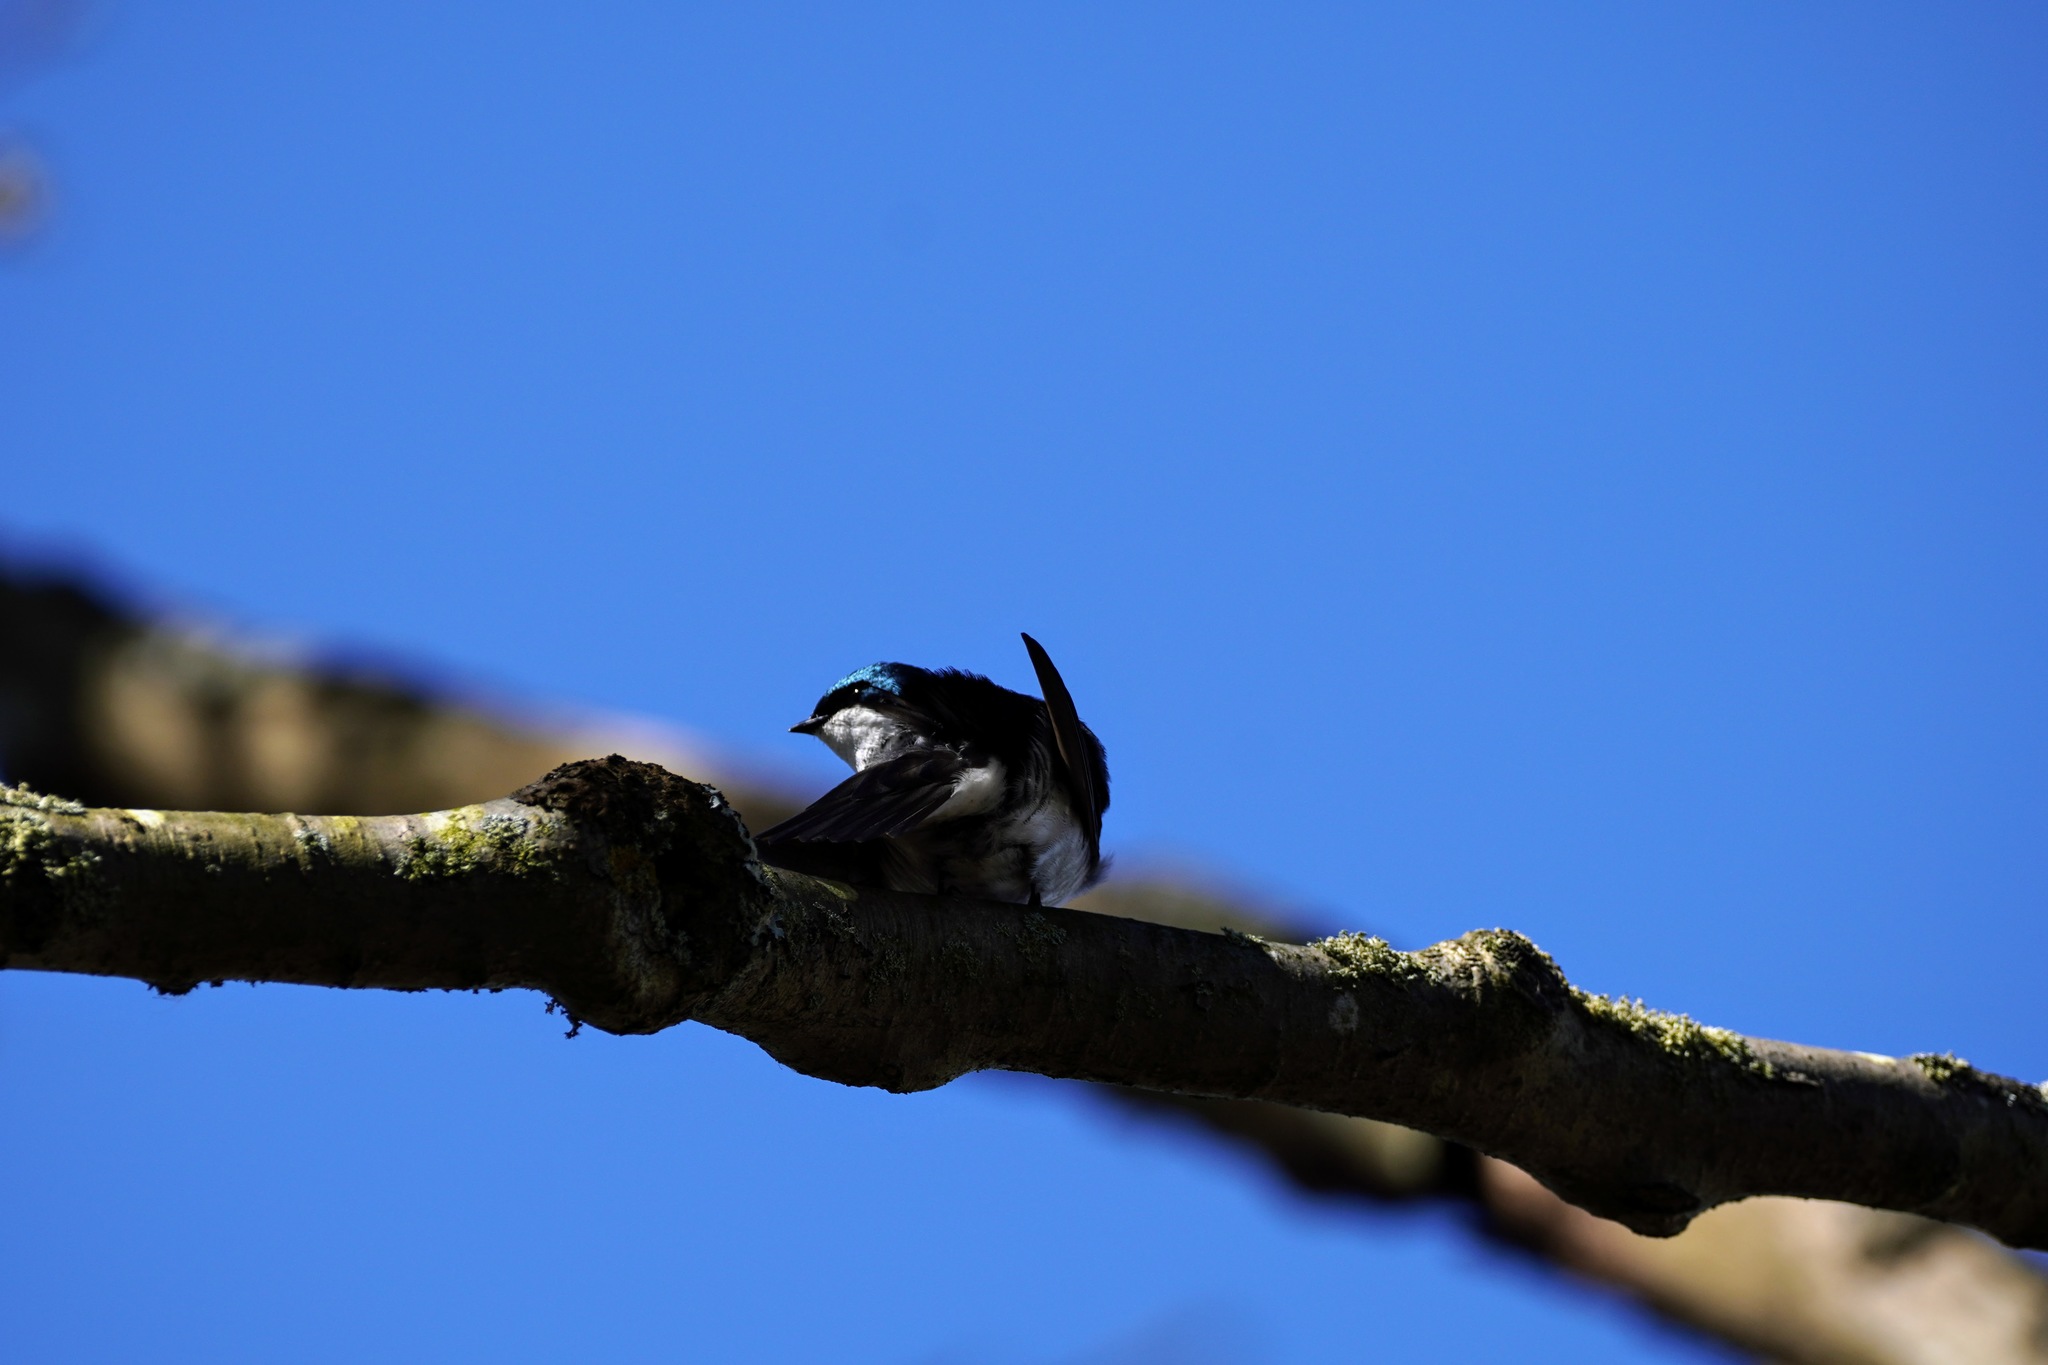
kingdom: Animalia
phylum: Chordata
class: Aves
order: Passeriformes
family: Hirundinidae
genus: Tachycineta
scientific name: Tachycineta bicolor
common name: Tree swallow
